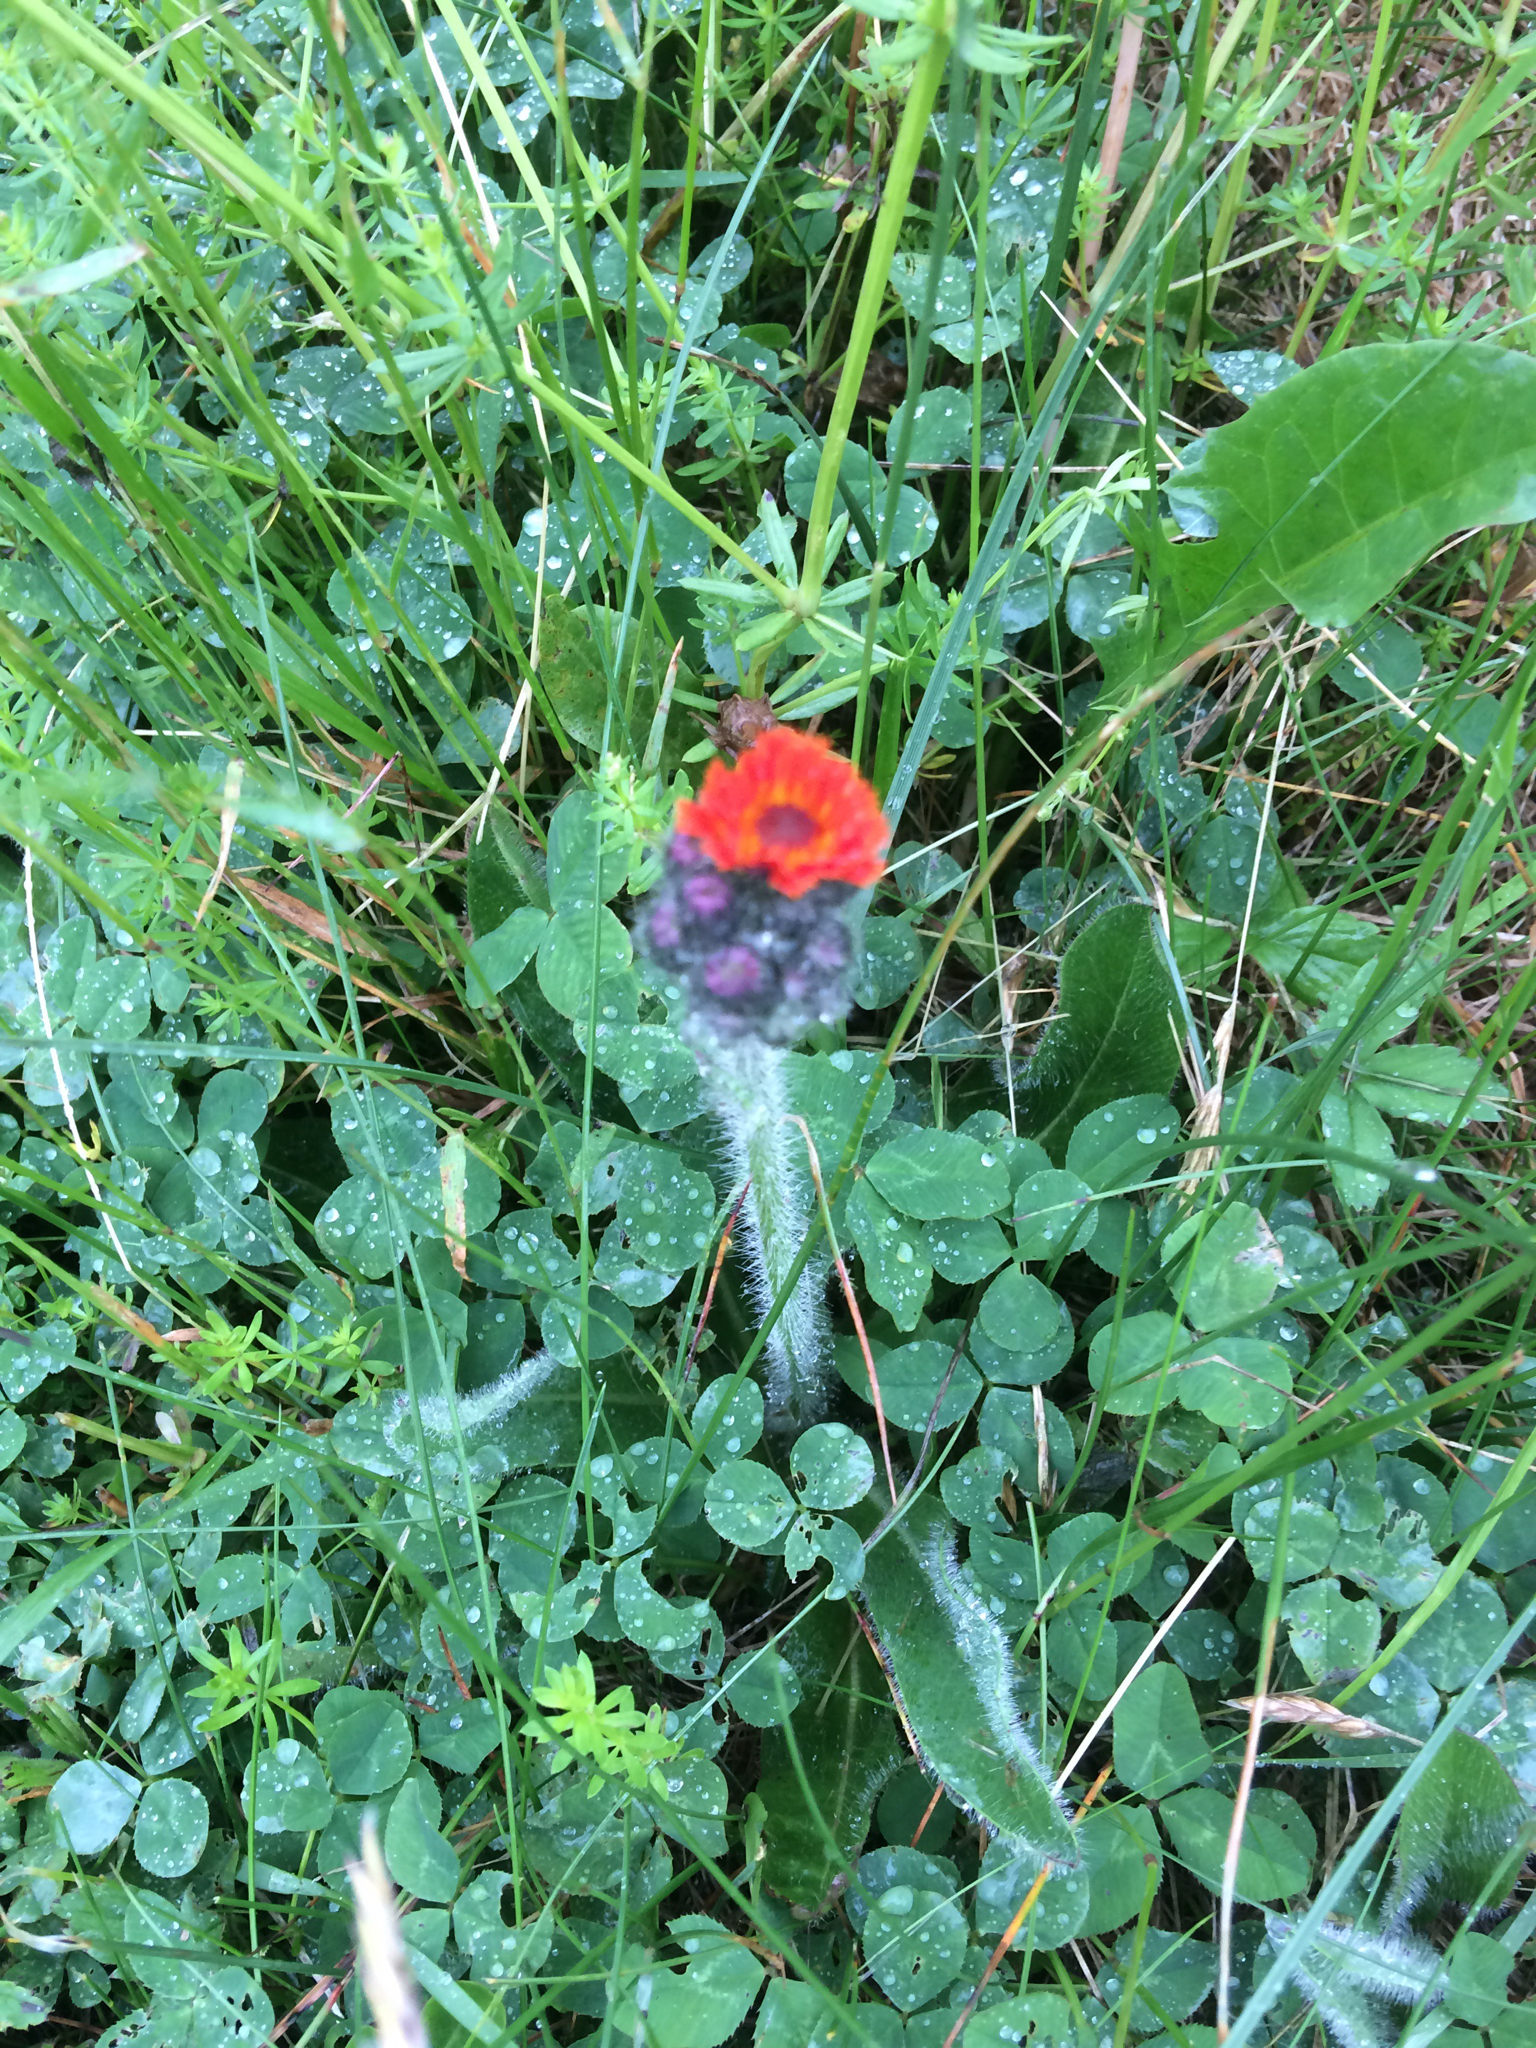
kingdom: Plantae
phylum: Tracheophyta
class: Magnoliopsida
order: Asterales
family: Asteraceae
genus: Pilosella
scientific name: Pilosella aurantiaca
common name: Fox-and-cubs
